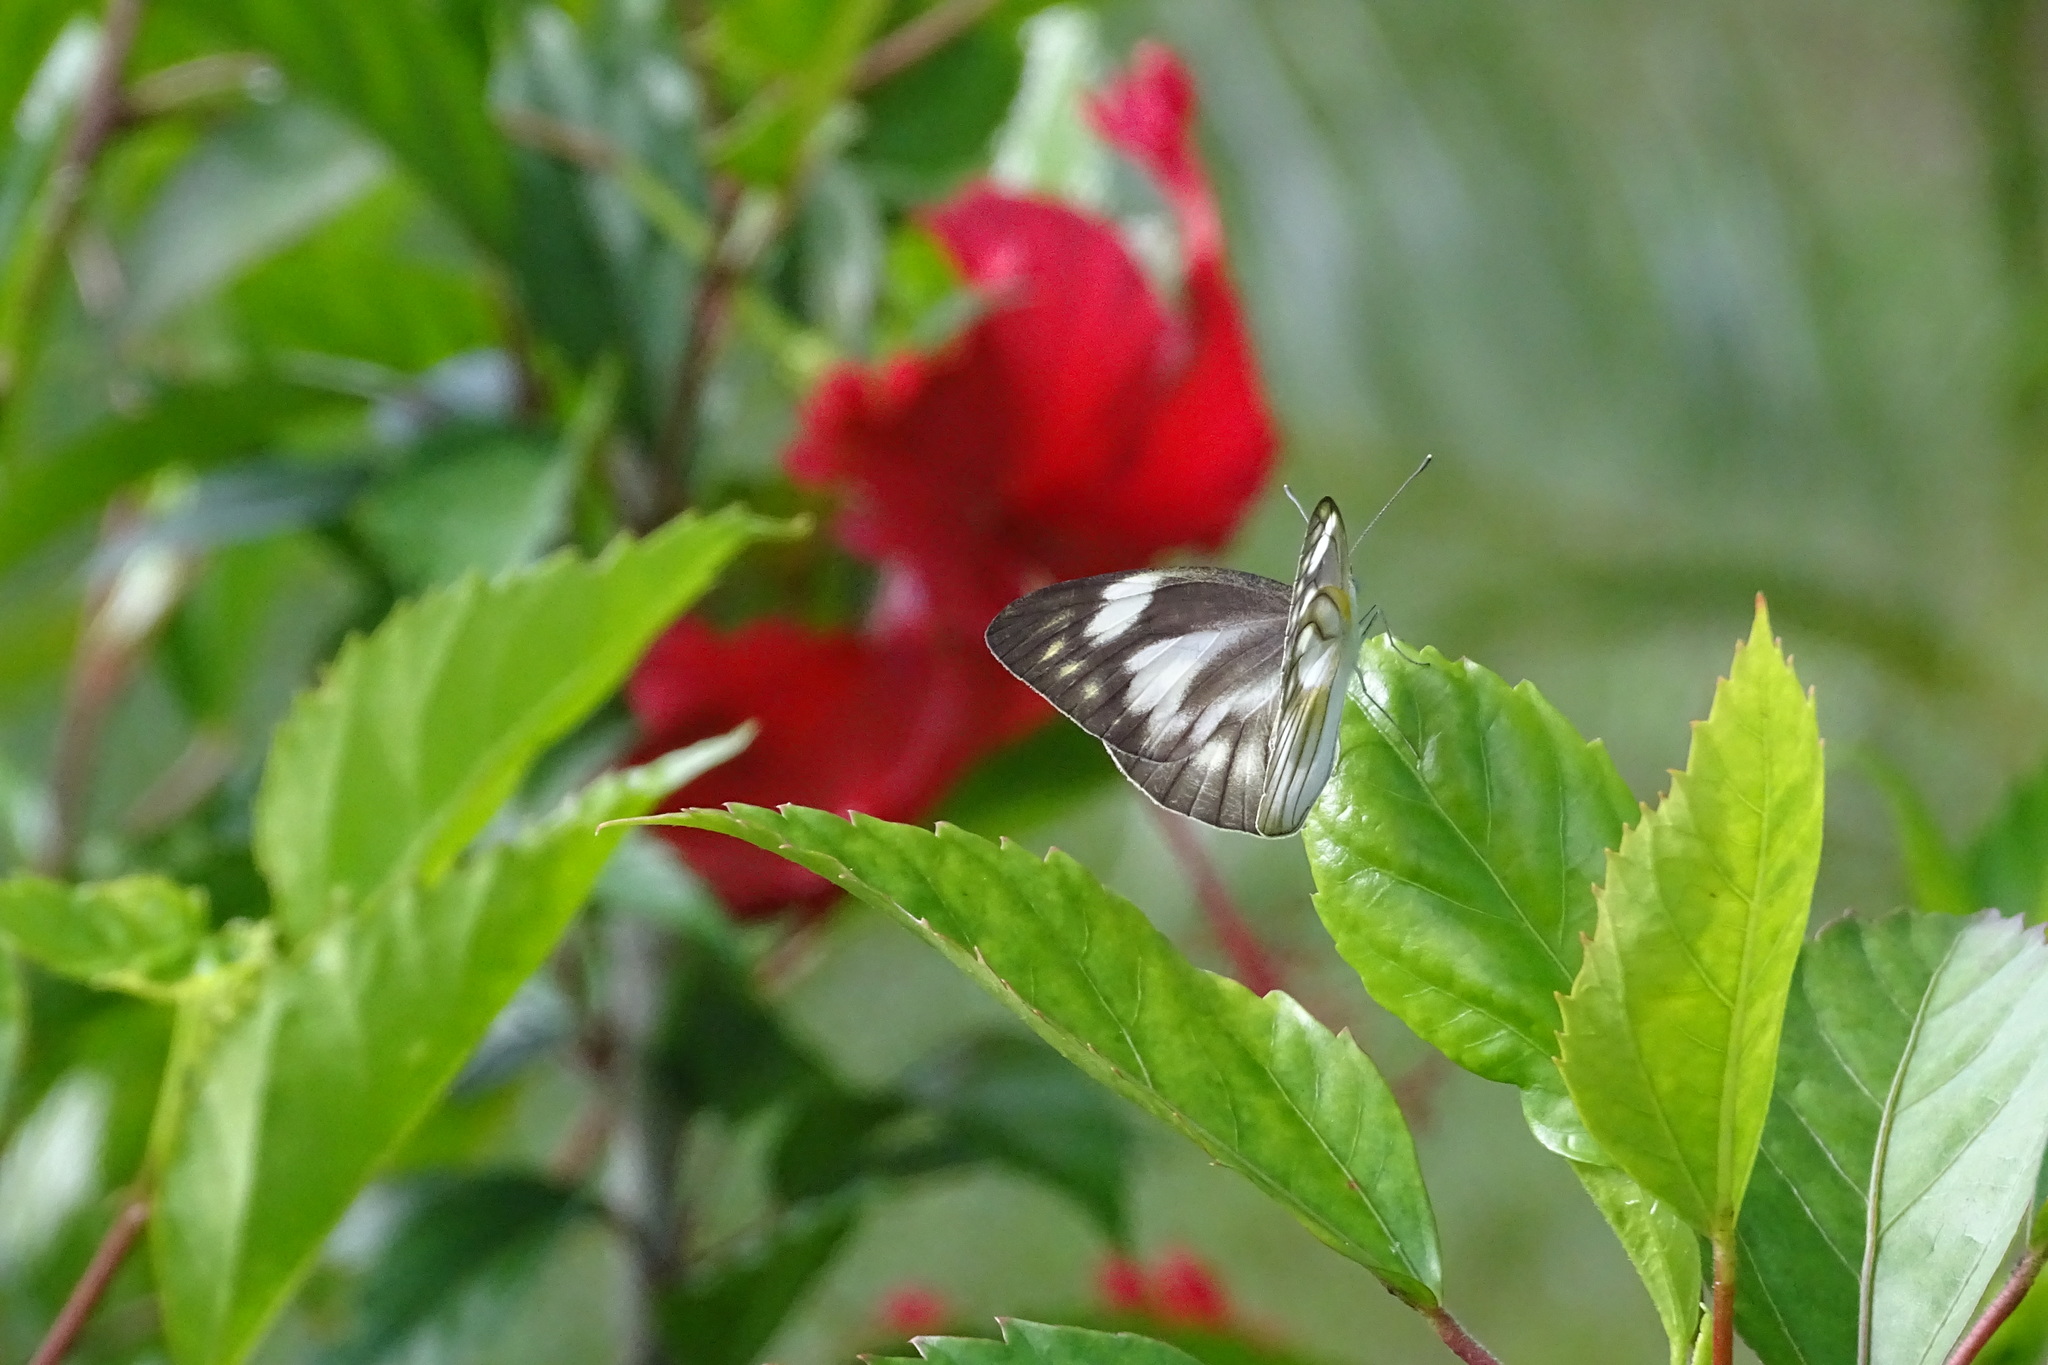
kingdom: Animalia
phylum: Arthropoda
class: Insecta
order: Lepidoptera
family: Pieridae
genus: Appias
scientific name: Appias libythea
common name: Striped albatross
